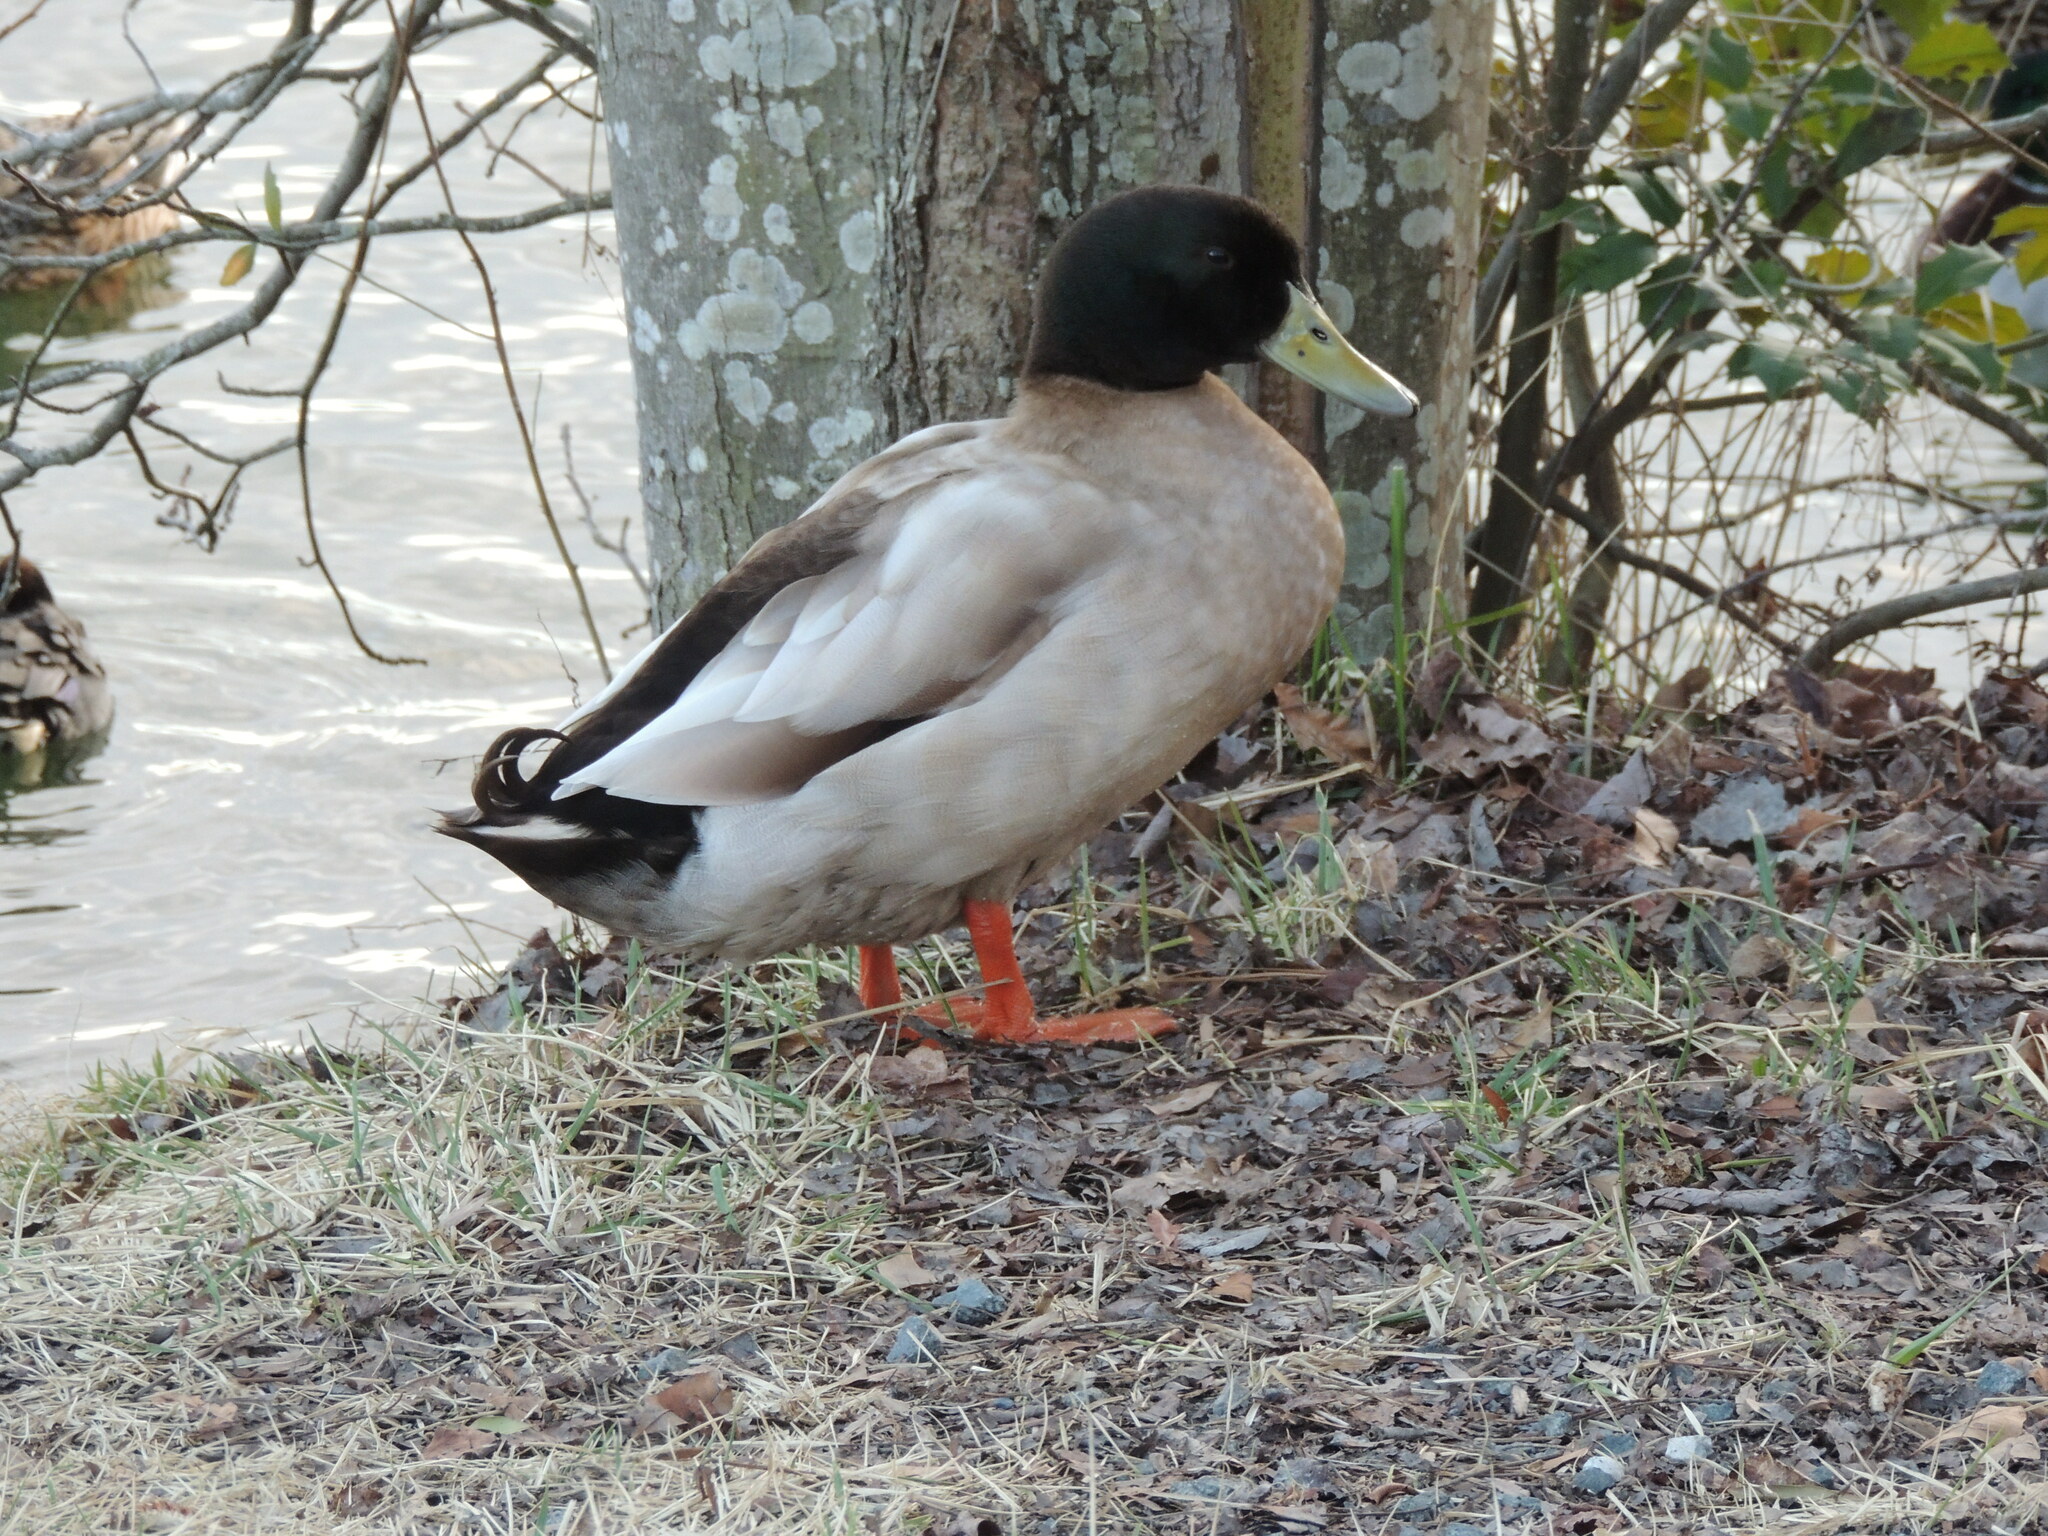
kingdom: Animalia
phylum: Chordata
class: Aves
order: Anseriformes
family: Anatidae
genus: Anas
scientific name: Anas platyrhynchos
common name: Mallard
